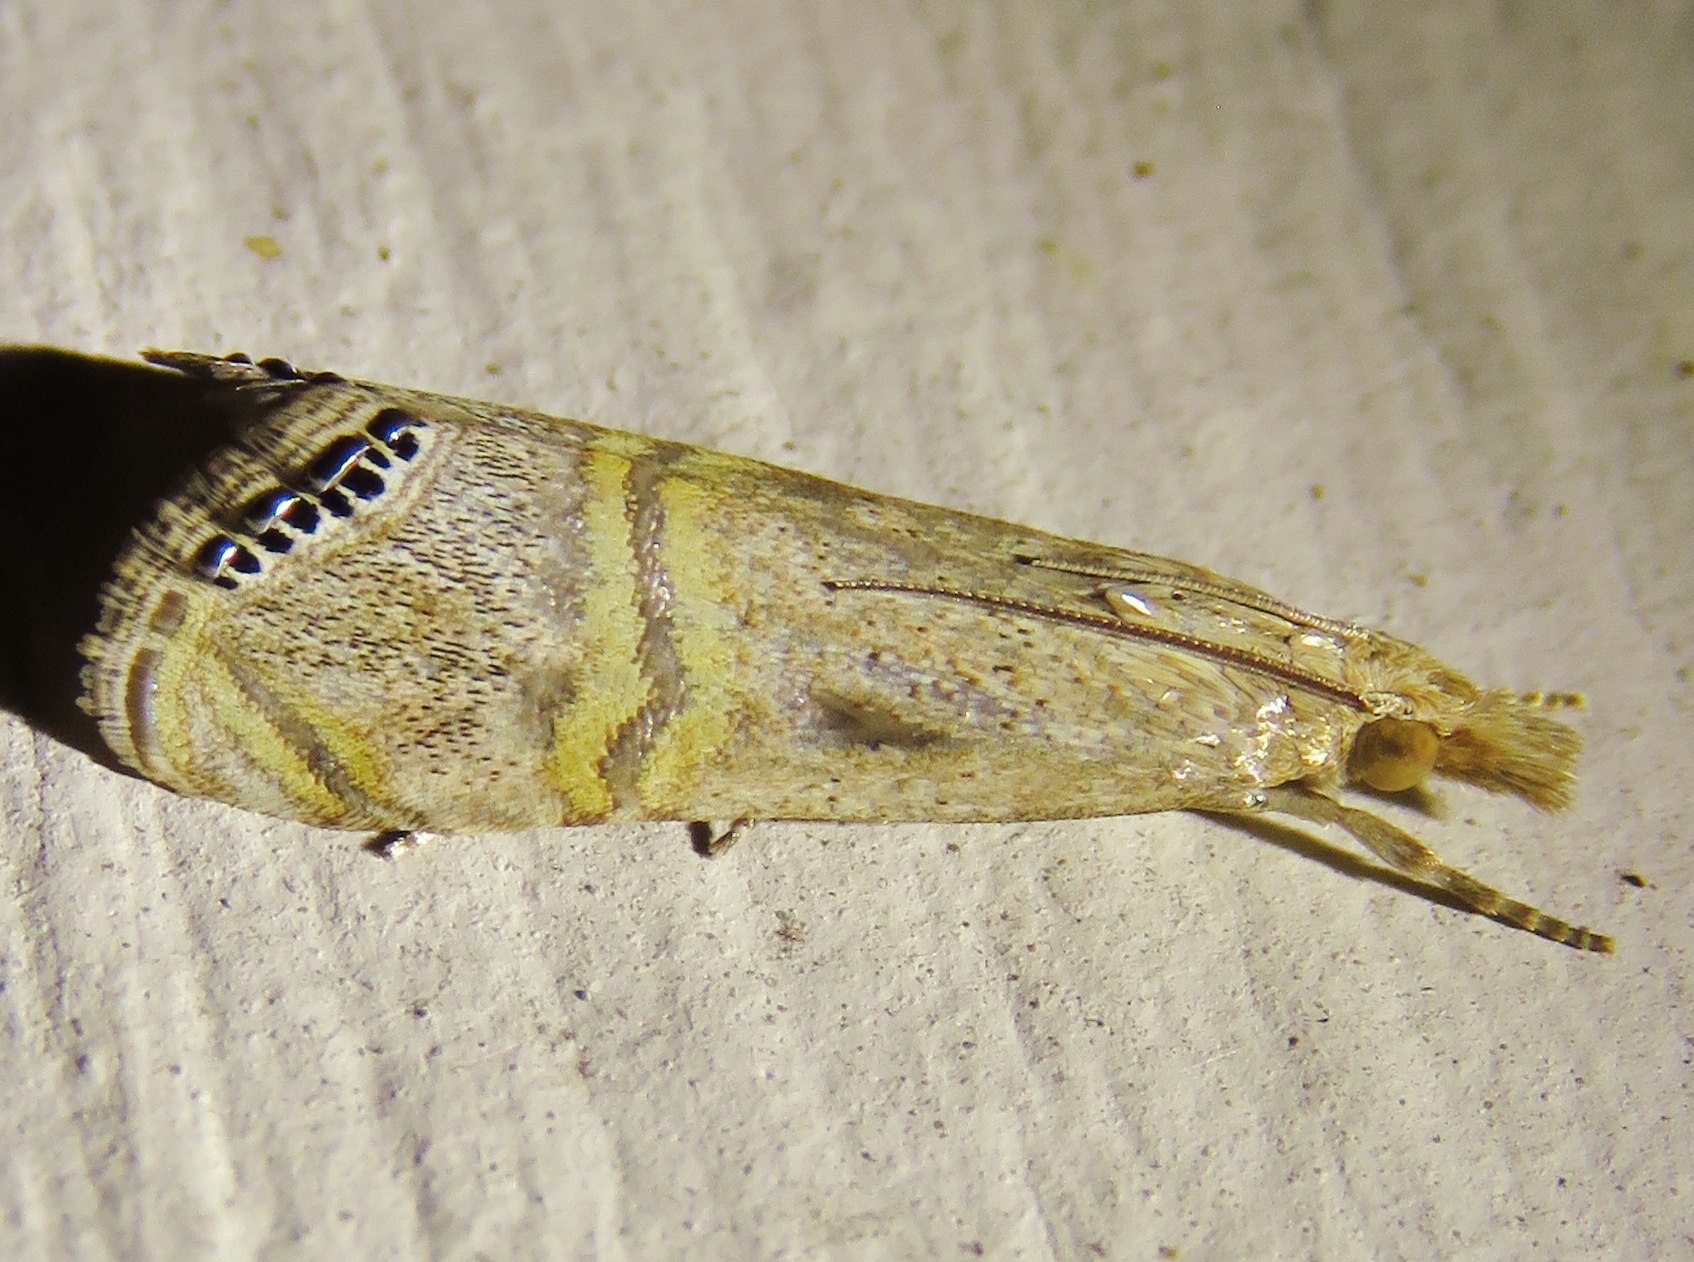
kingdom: Animalia
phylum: Arthropoda
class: Insecta
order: Lepidoptera
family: Crambidae
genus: Euchromius
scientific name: Euchromius ocellea
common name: Necklace veneer moth
